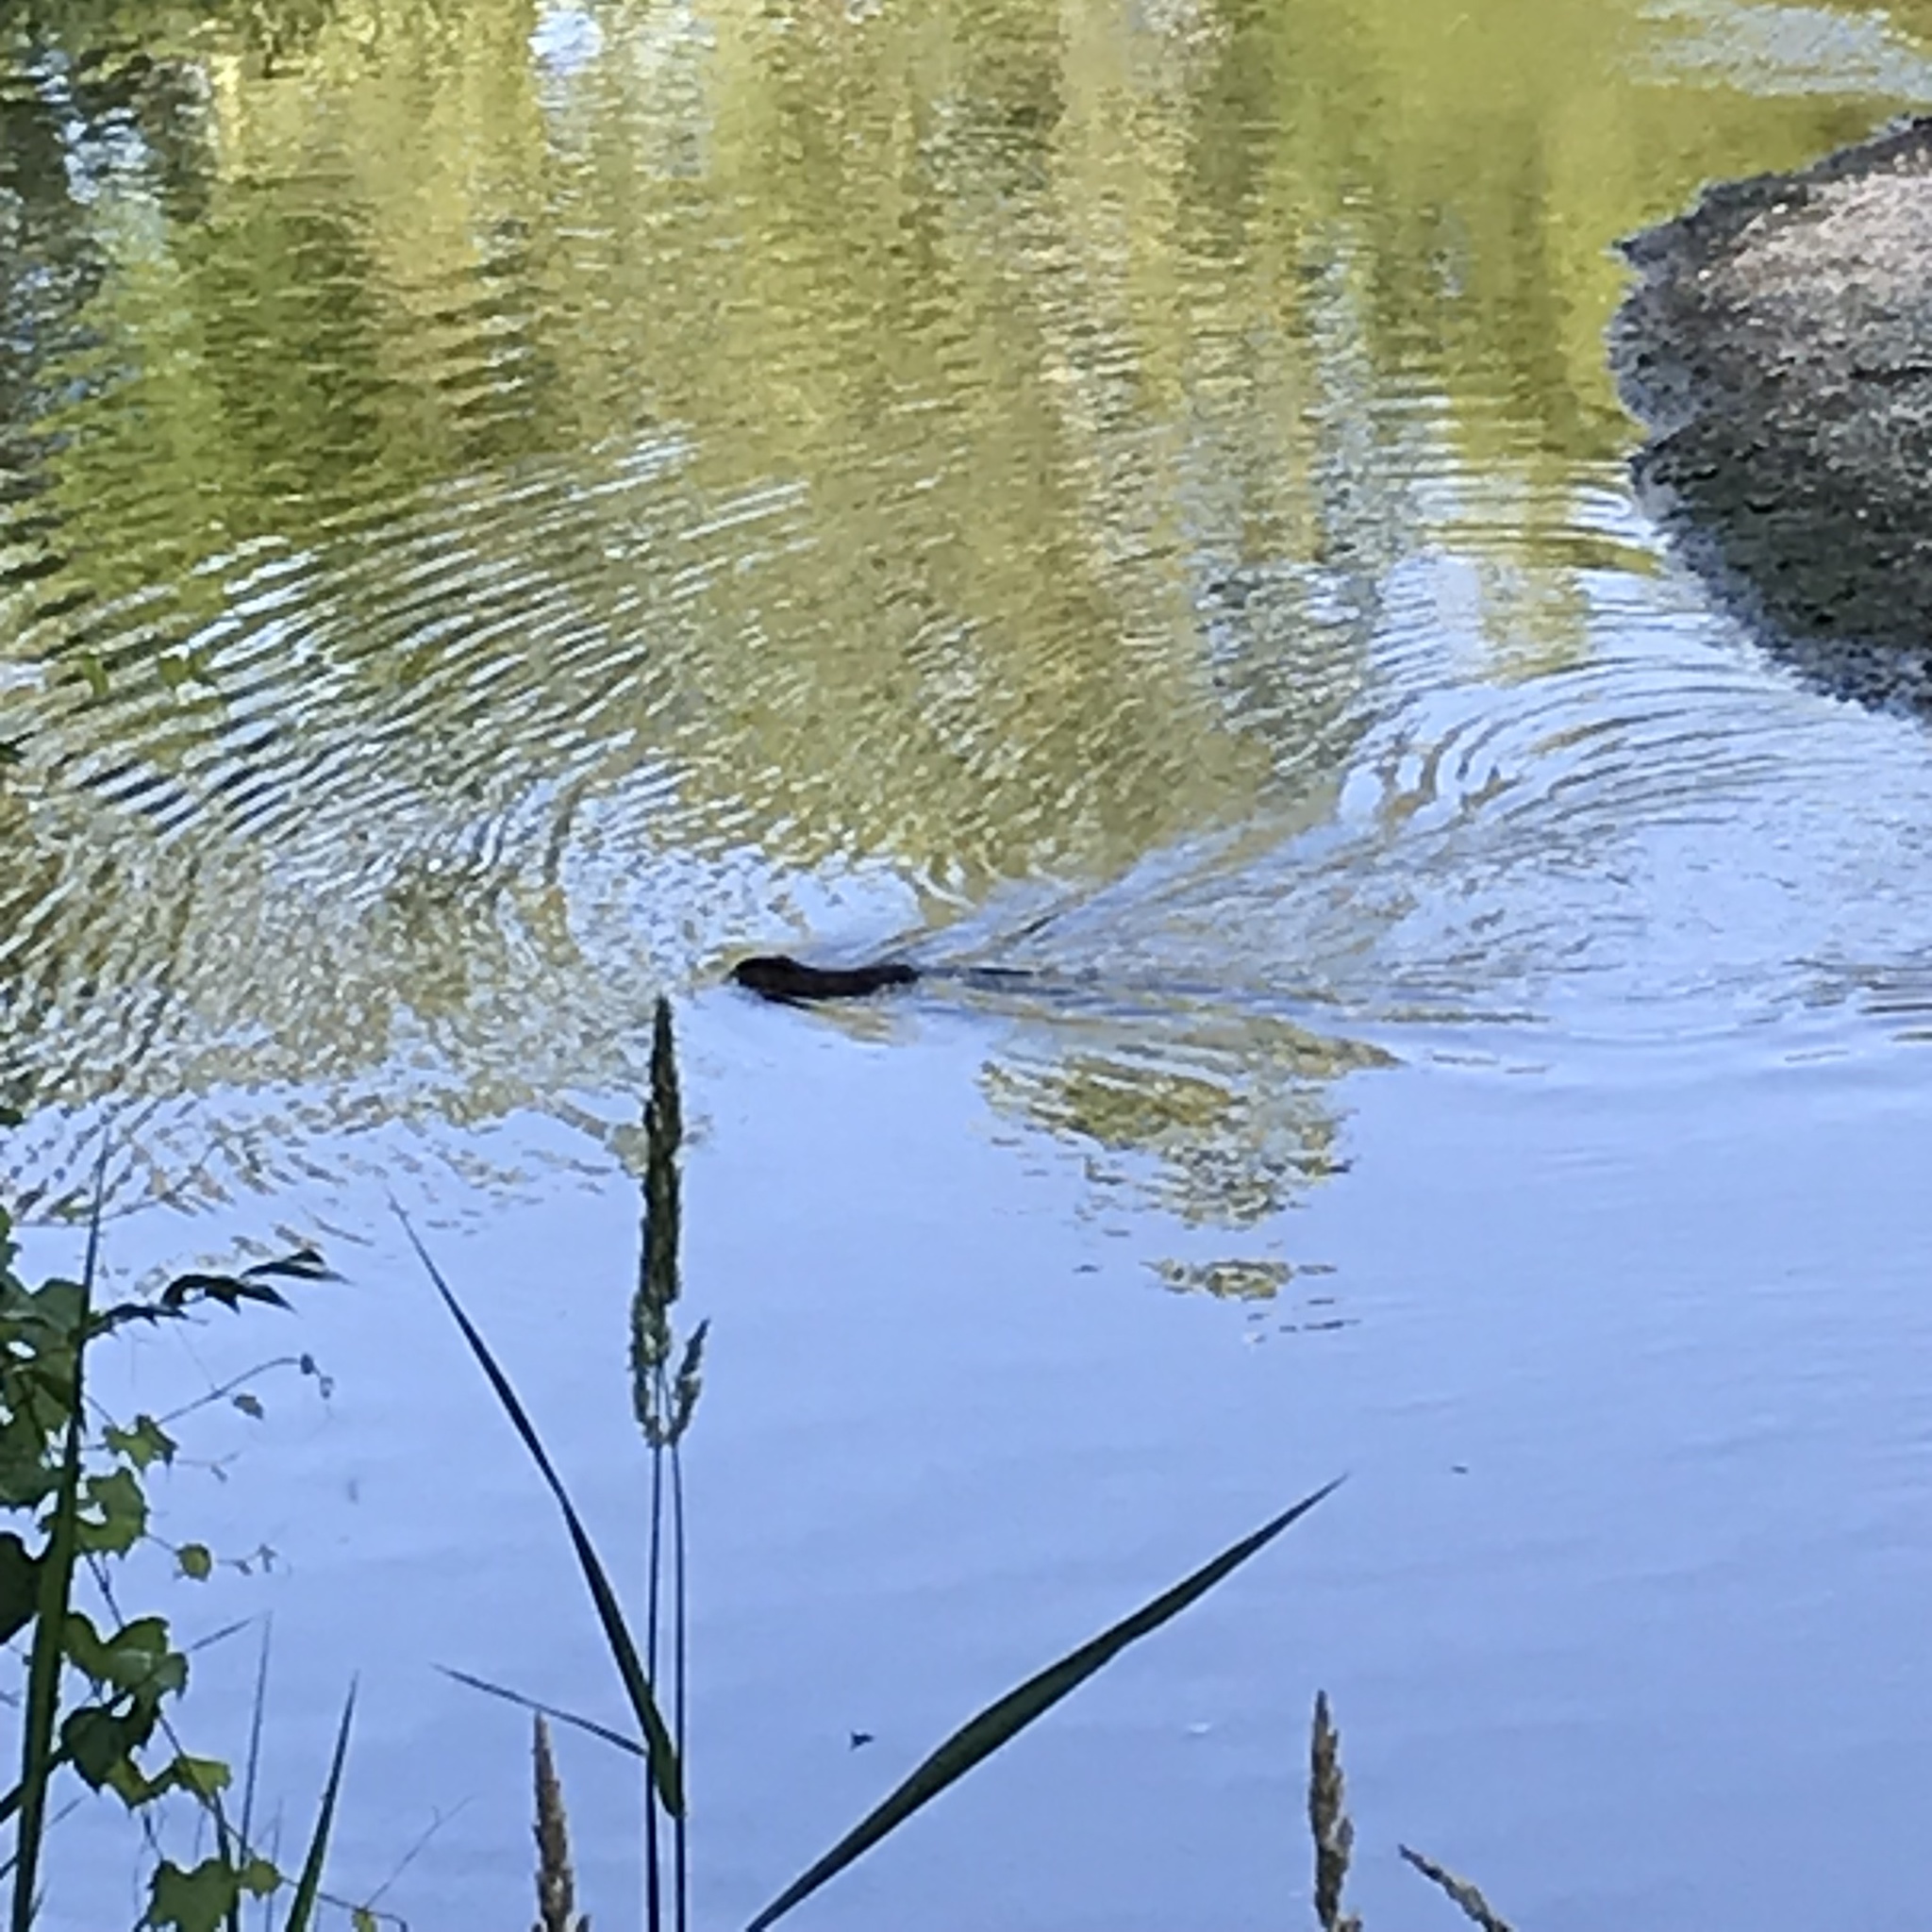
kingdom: Animalia
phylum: Chordata
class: Mammalia
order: Rodentia
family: Cricetidae
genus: Ondatra
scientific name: Ondatra zibethicus
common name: Muskrat
